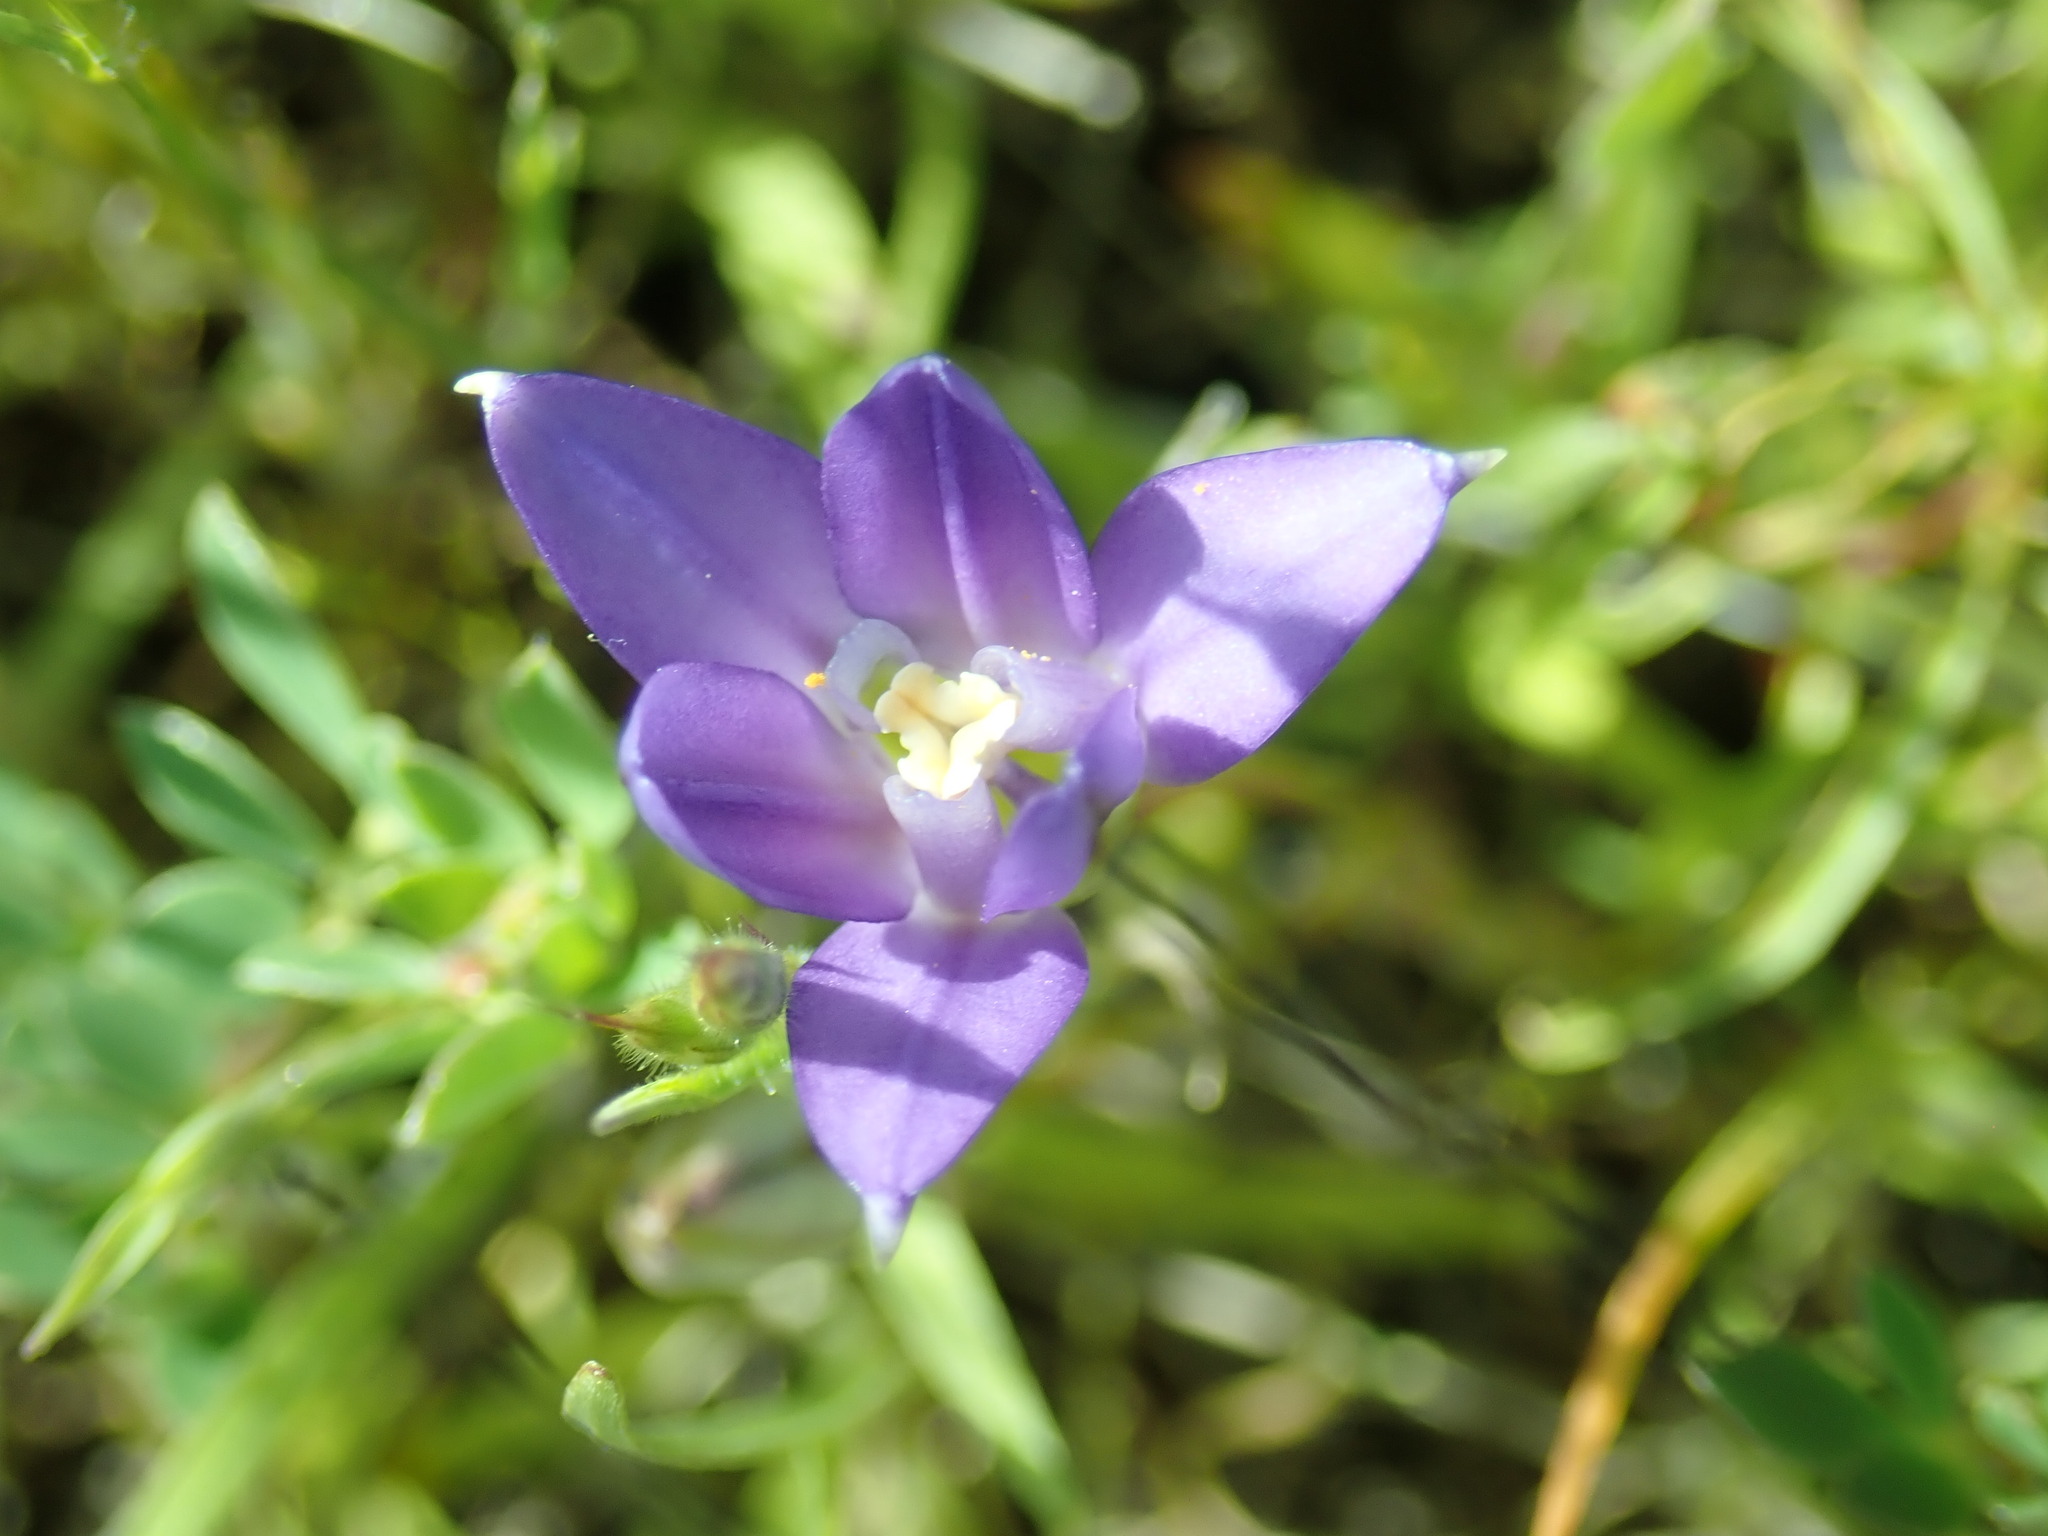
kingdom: Plantae
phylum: Tracheophyta
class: Liliopsida
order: Asparagales
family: Asparagaceae
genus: Brodiaea
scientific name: Brodiaea terrestris
